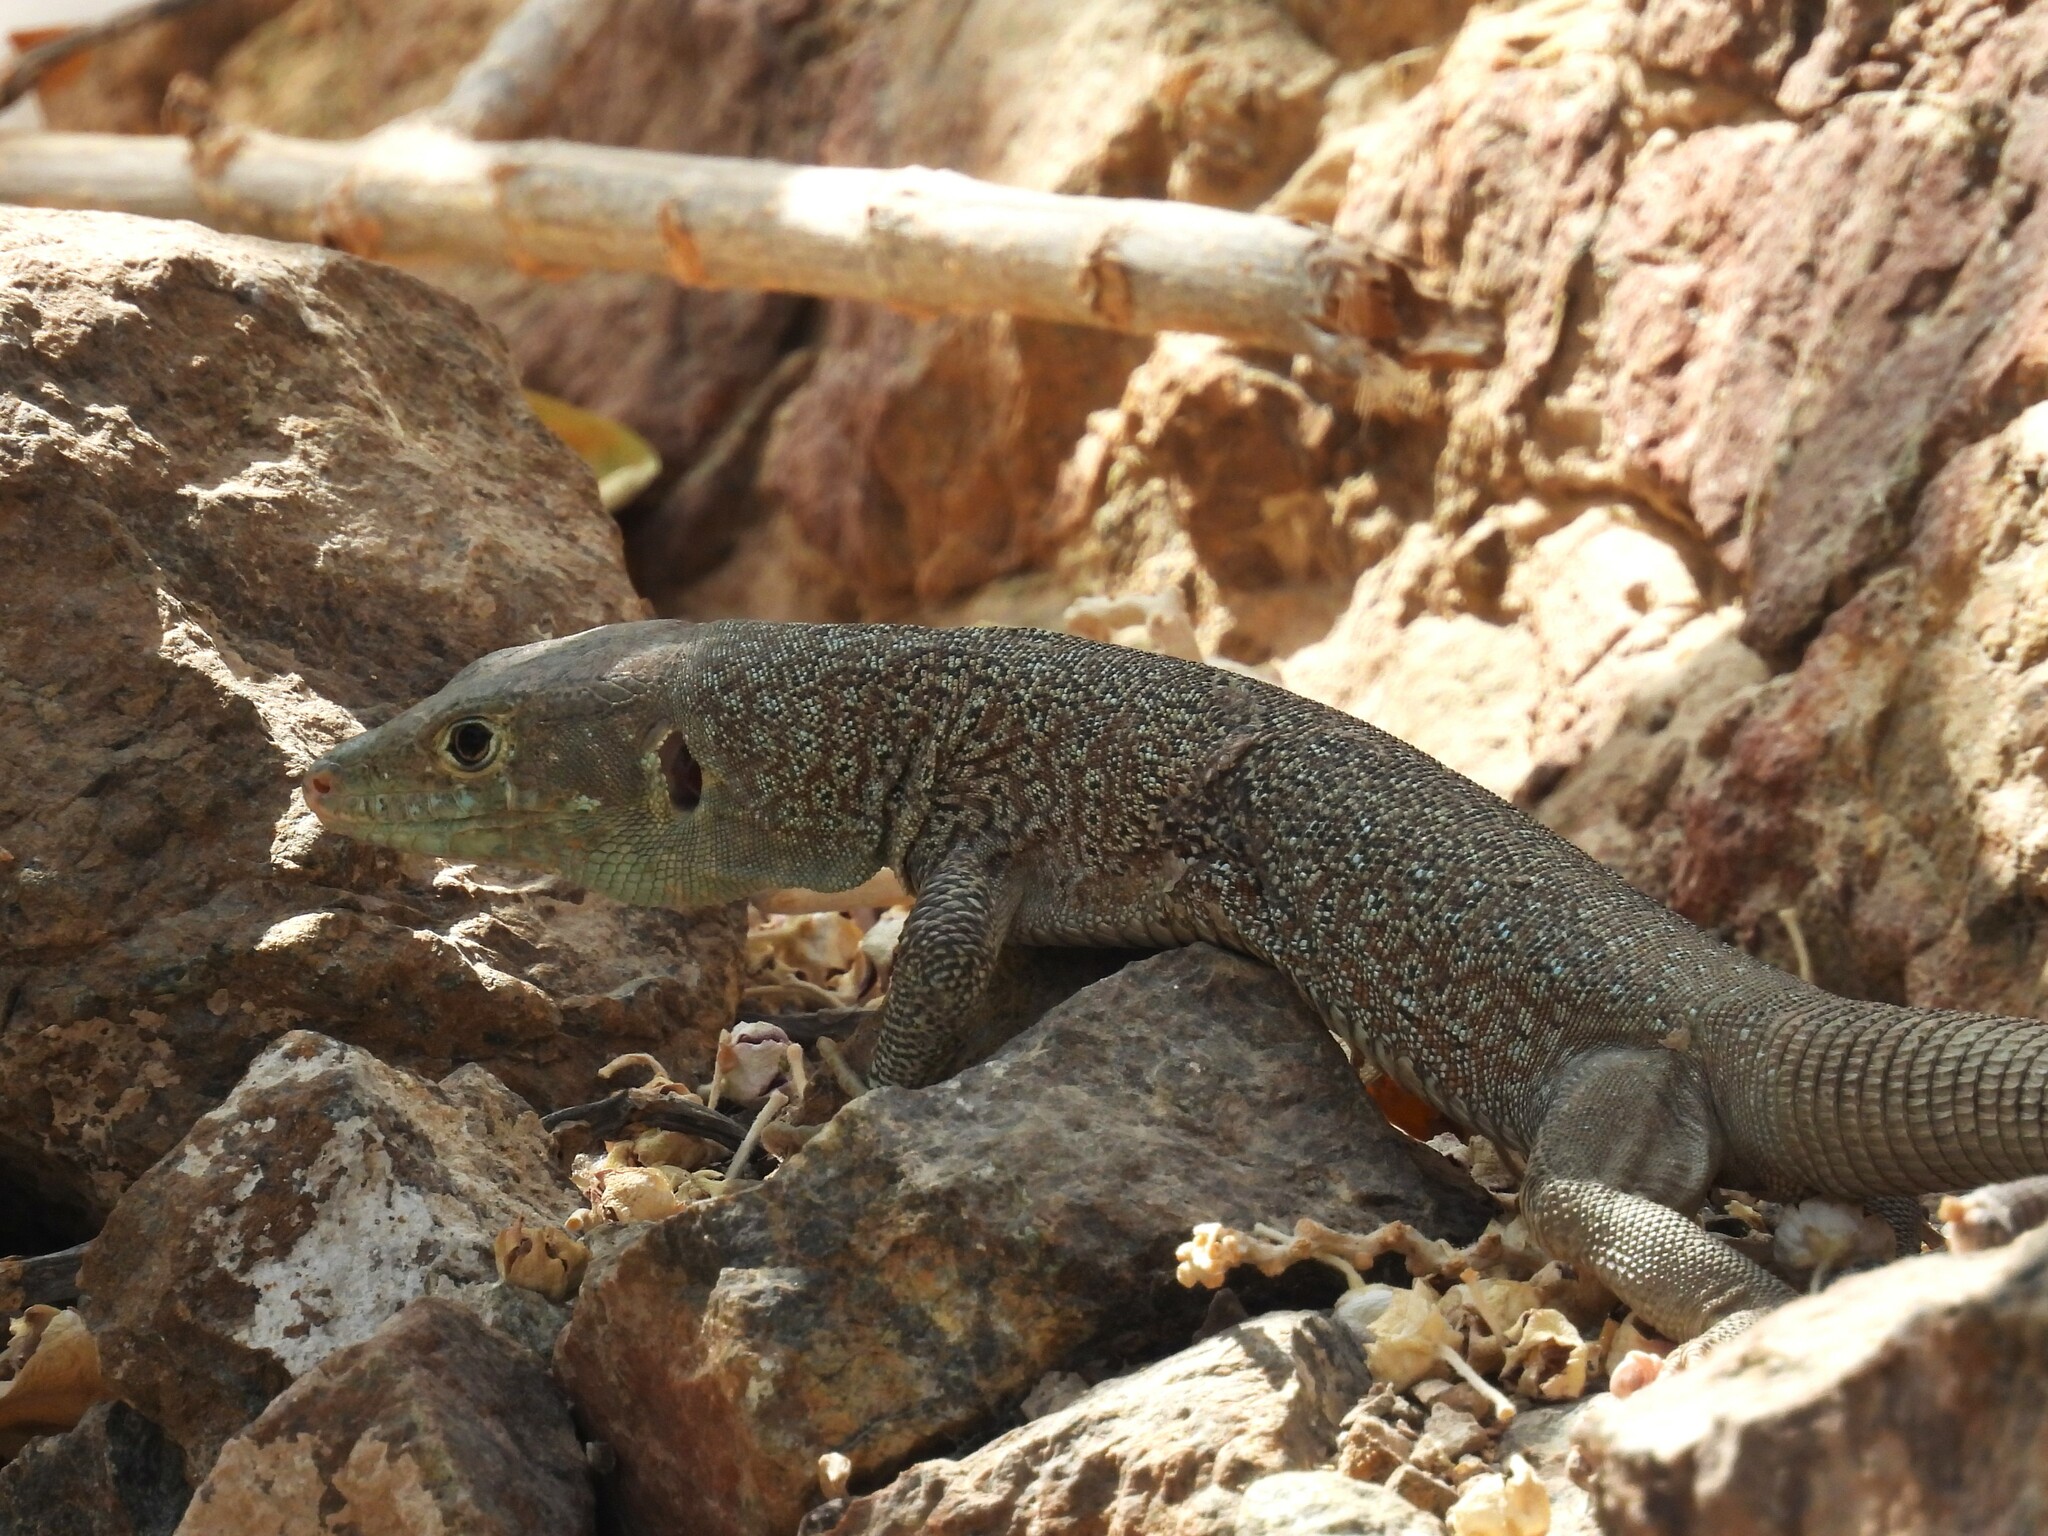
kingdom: Animalia
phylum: Chordata
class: Squamata
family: Lacertidae
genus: Omanosaura
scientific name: Omanosaura jayakari
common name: Jayakar lizard
